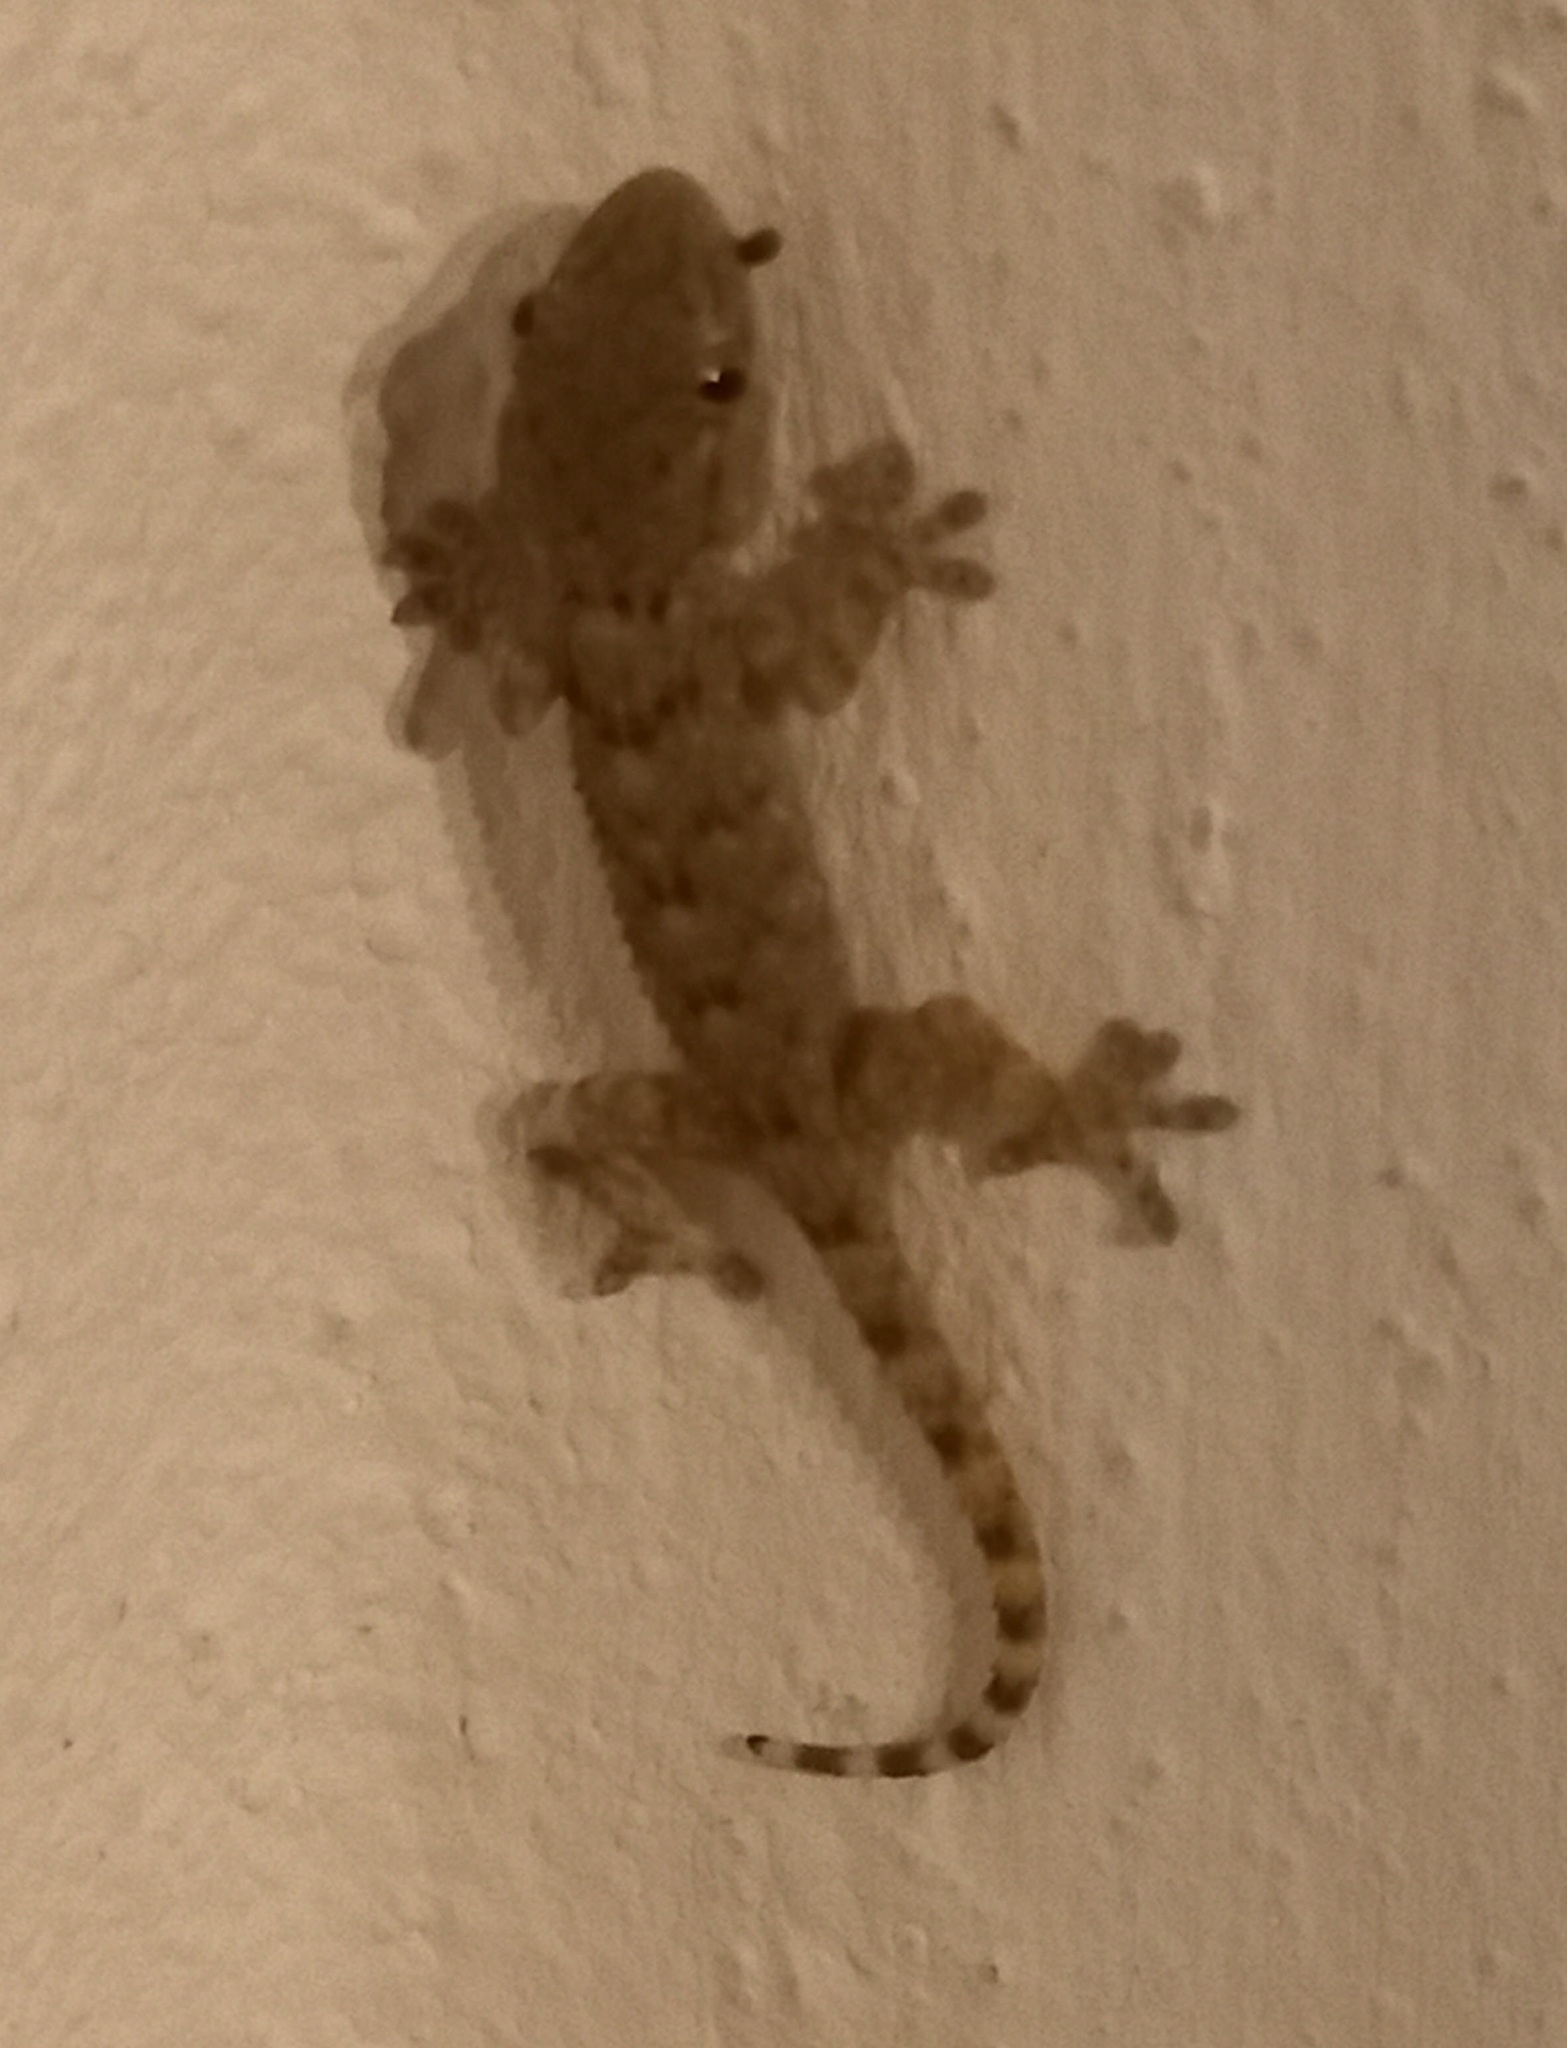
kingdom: Animalia
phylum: Chordata
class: Squamata
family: Phyllodactylidae
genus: Tarentola
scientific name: Tarentola mauritanica
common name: Moorish gecko
